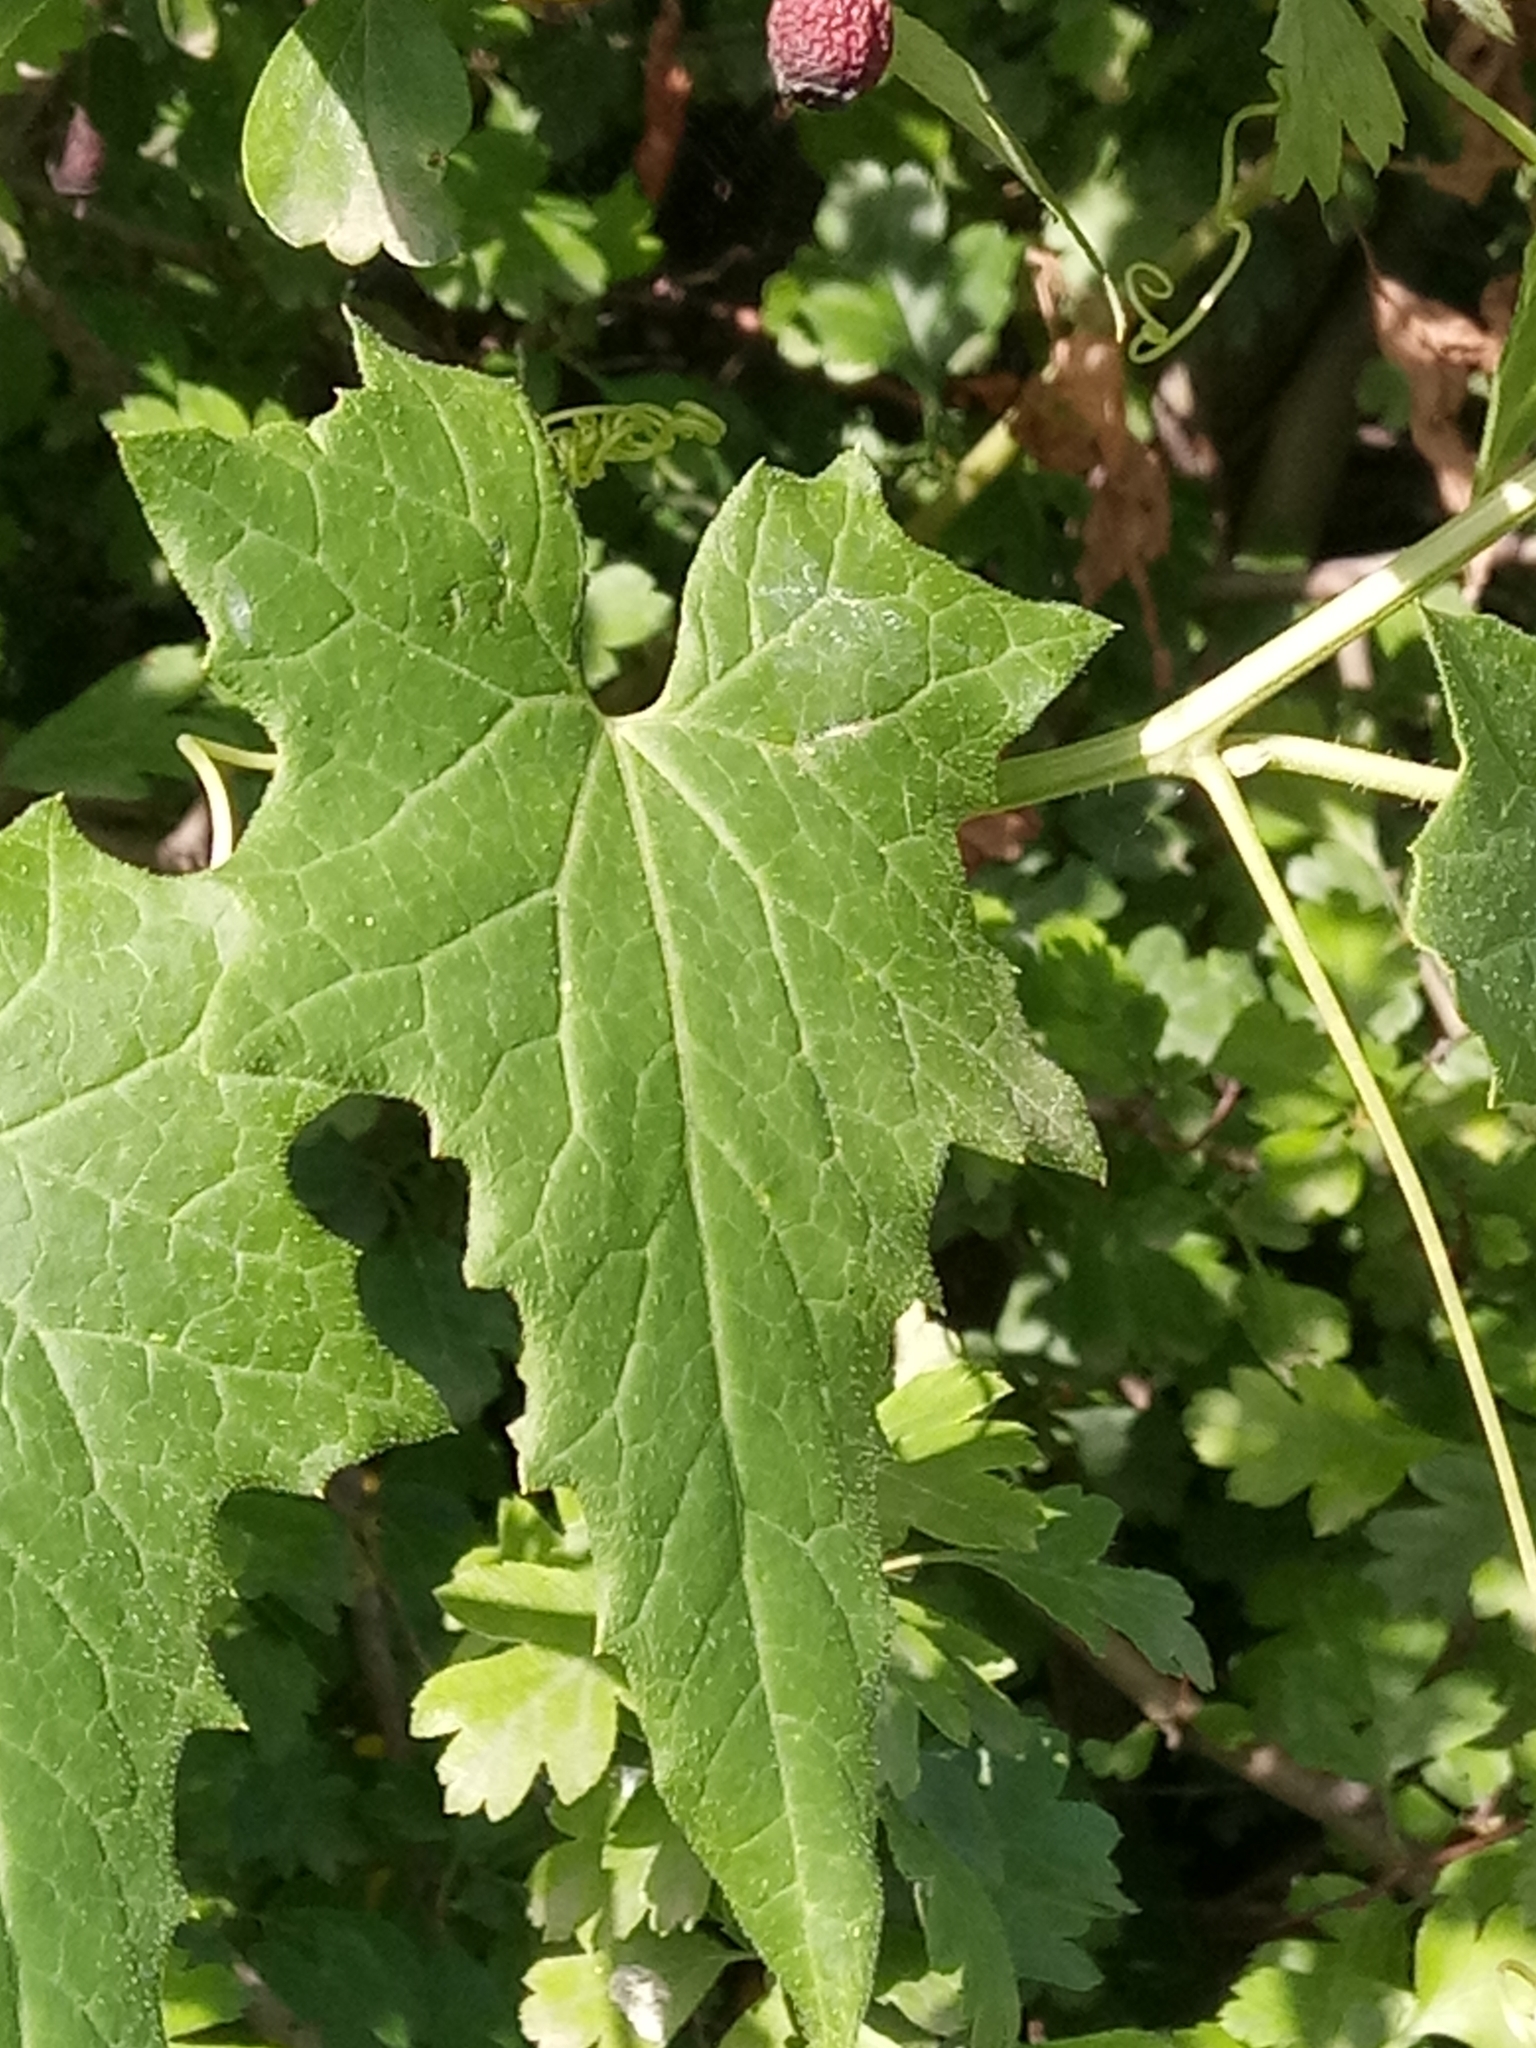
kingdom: Plantae
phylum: Tracheophyta
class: Magnoliopsida
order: Cucurbitales
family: Cucurbitaceae
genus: Bryonia
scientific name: Bryonia cretica
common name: Cretan bryony
